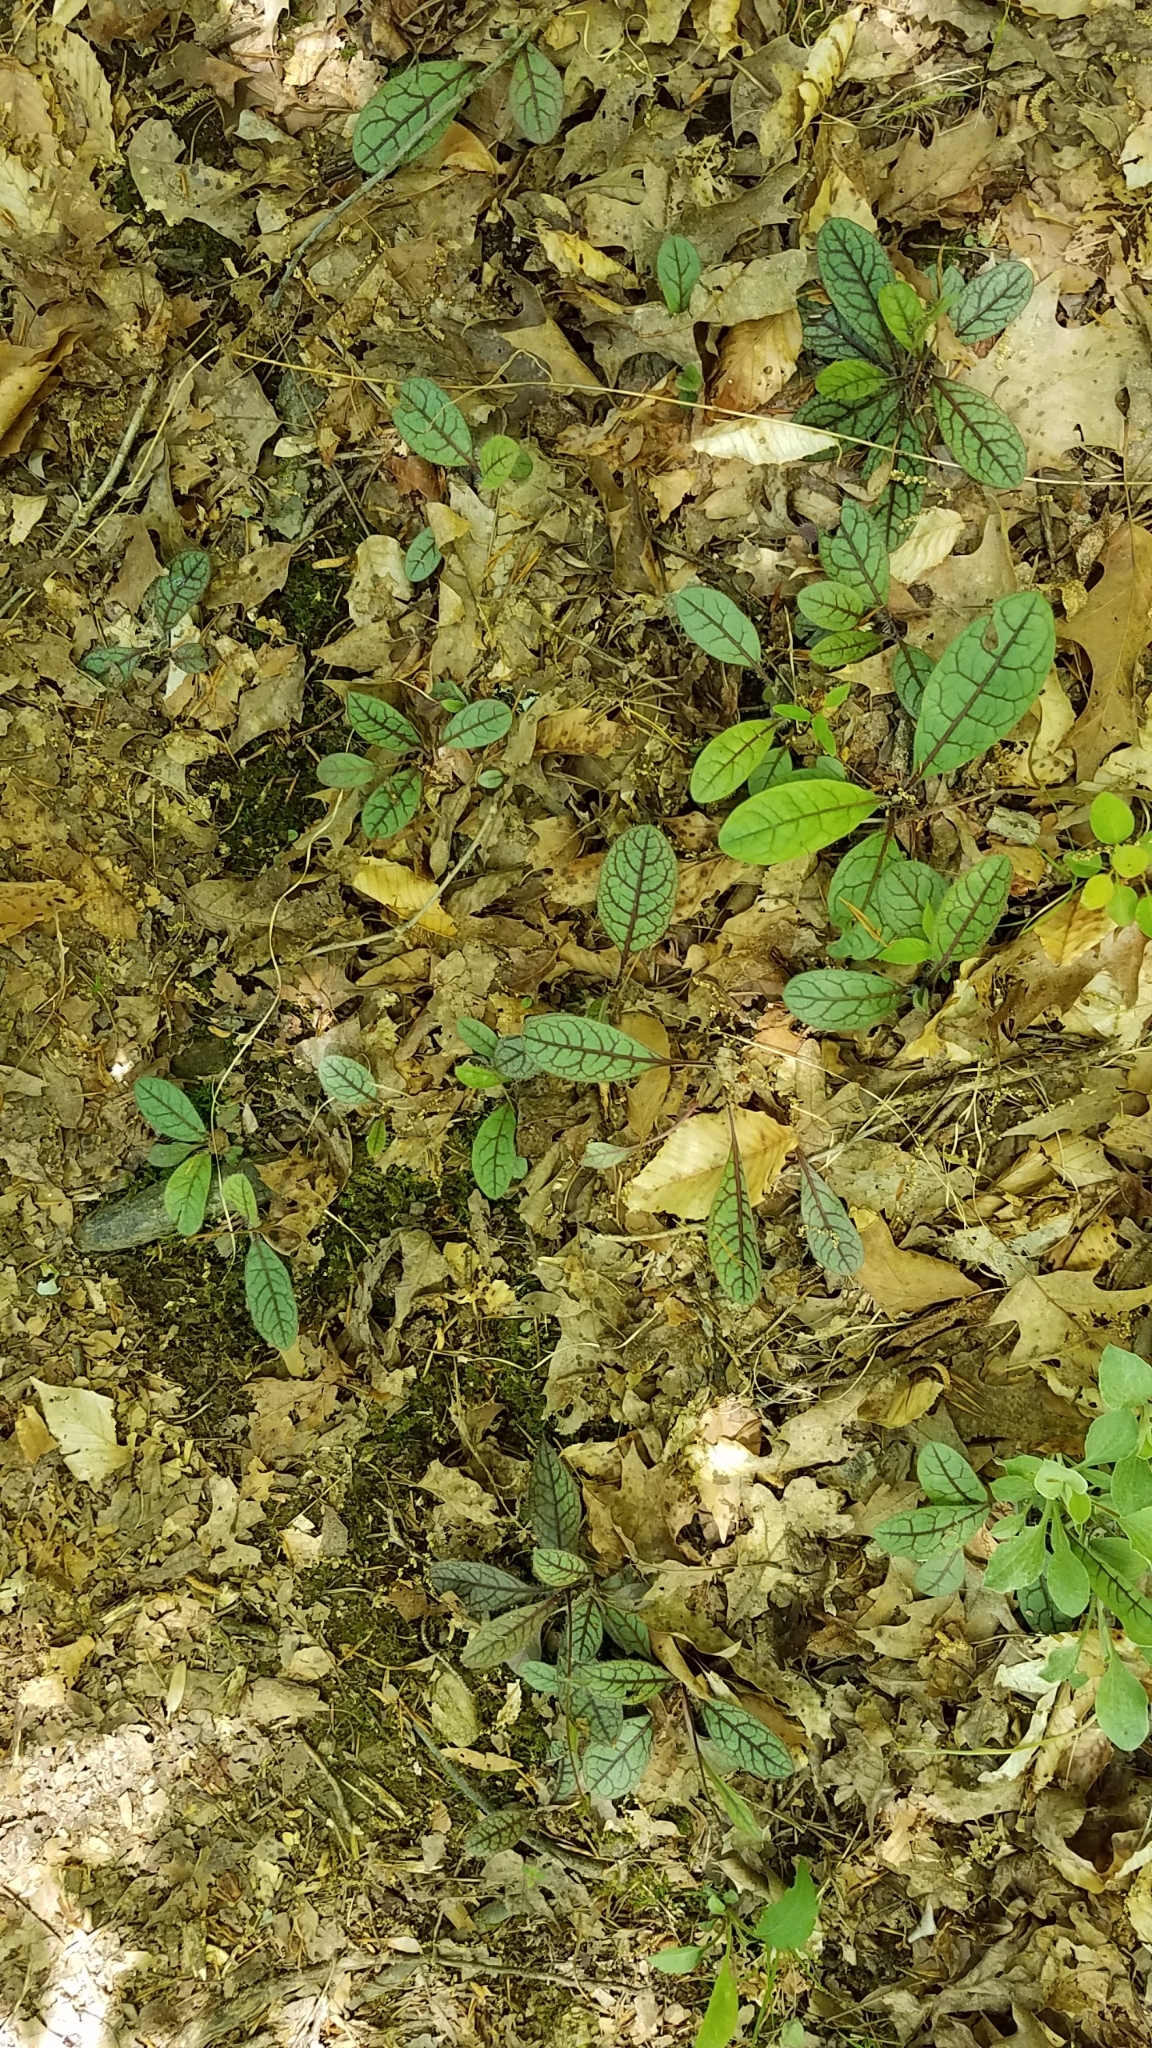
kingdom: Plantae
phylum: Tracheophyta
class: Magnoliopsida
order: Asterales
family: Asteraceae
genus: Hieracium
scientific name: Hieracium venosum
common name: Rattlesnake hawkweed
